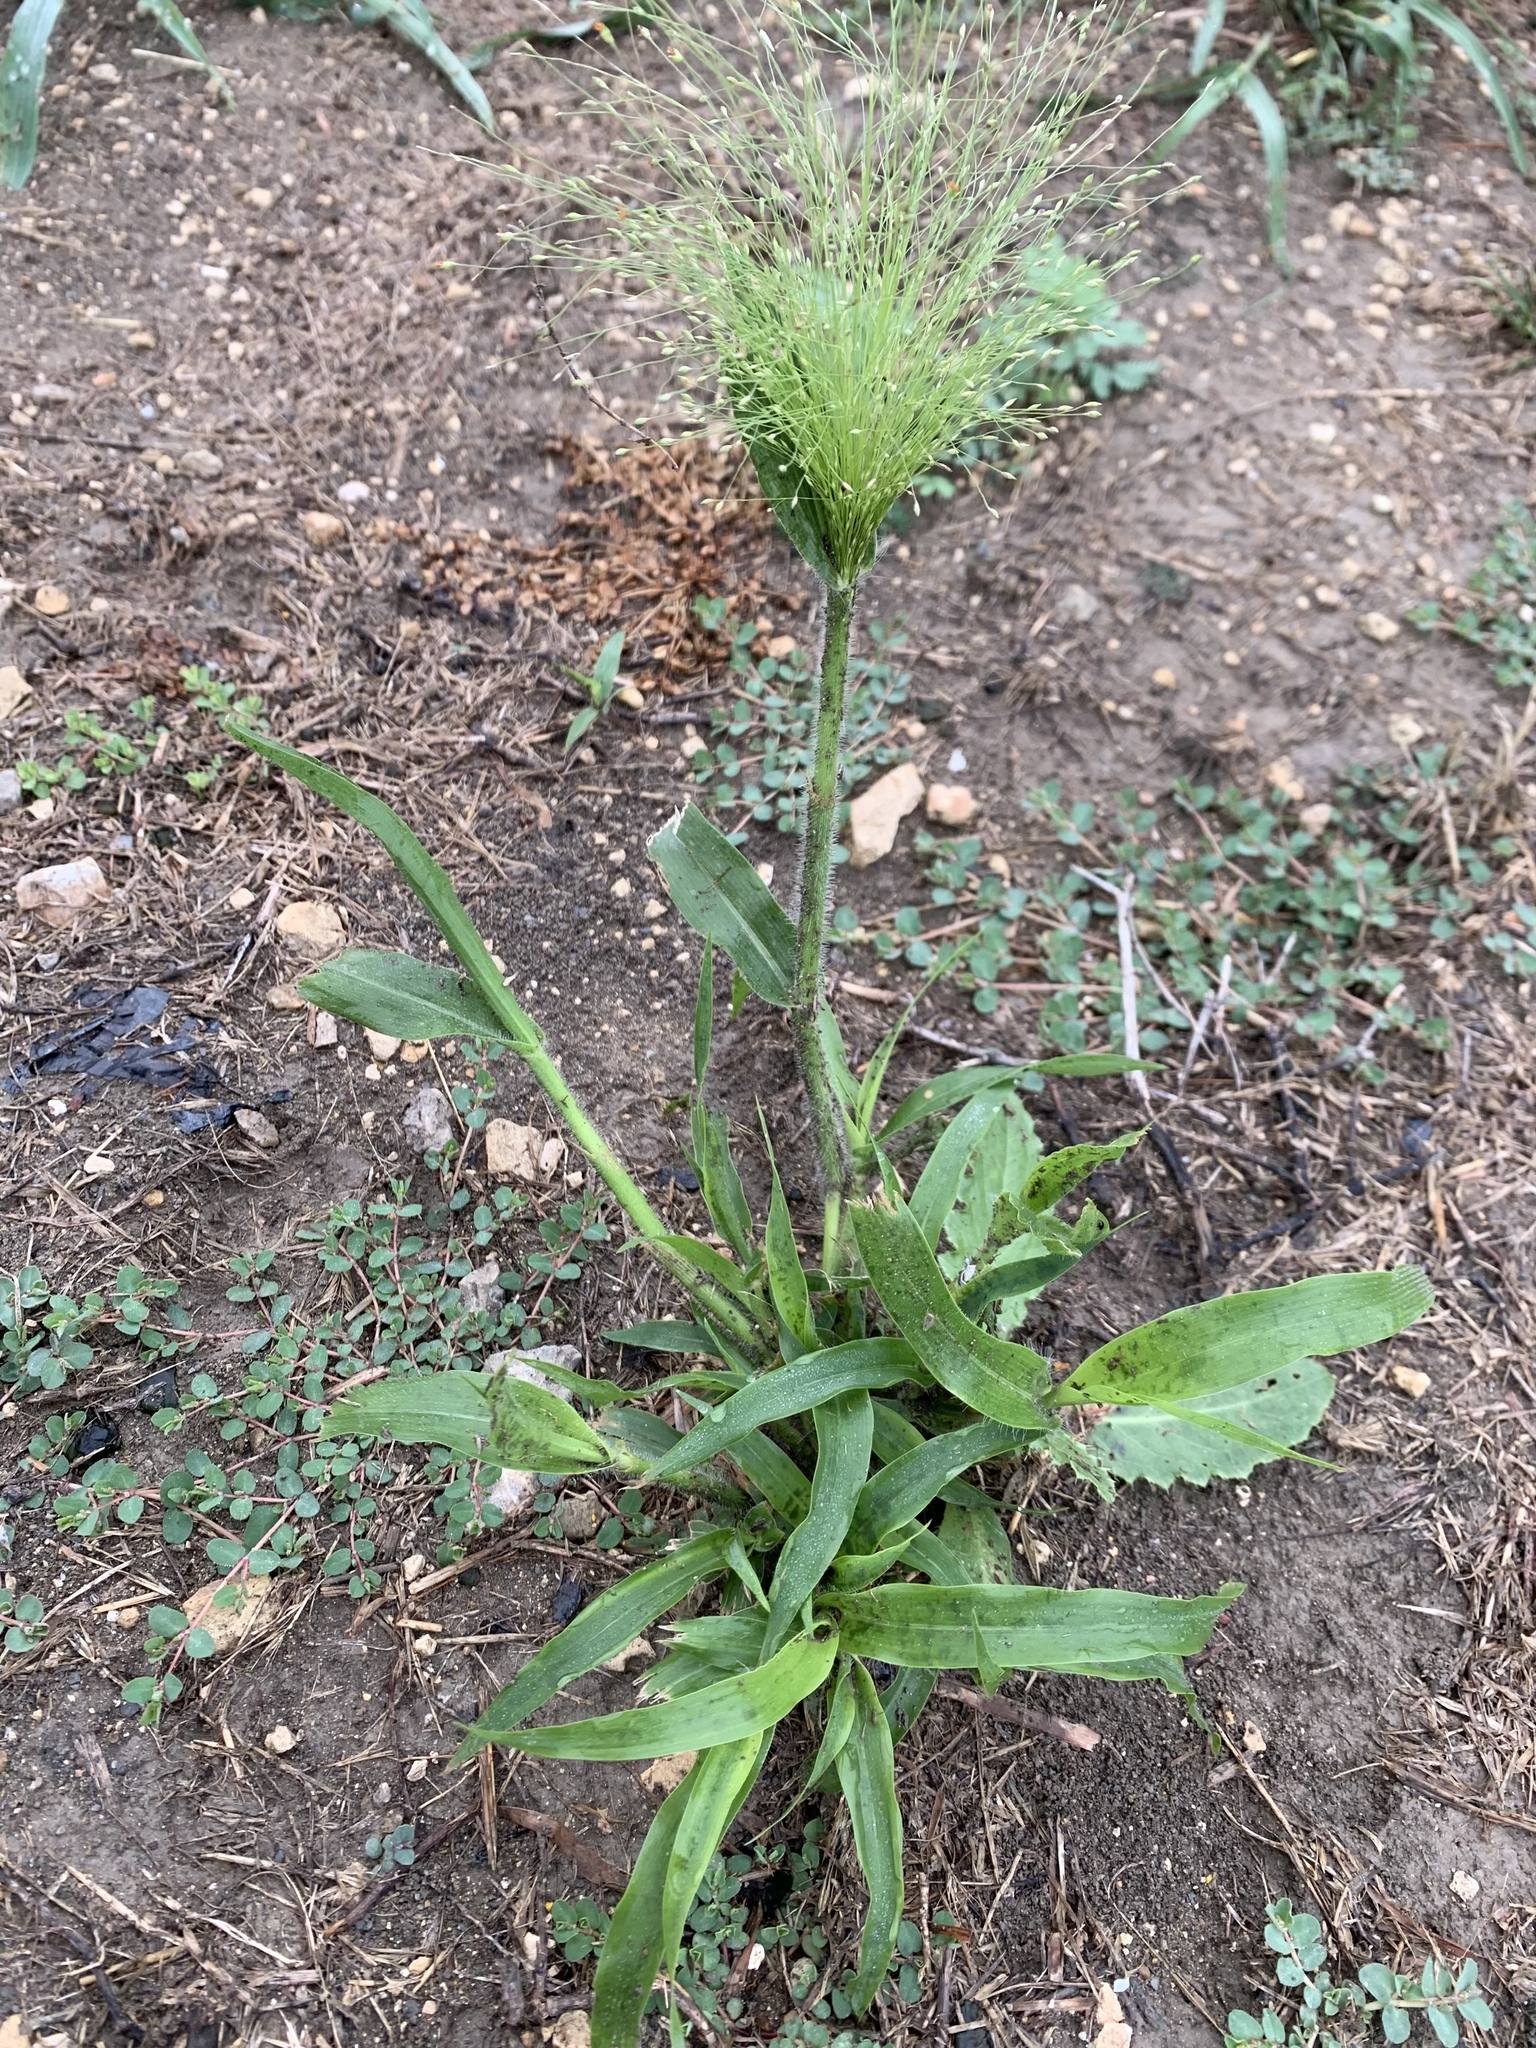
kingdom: Plantae
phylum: Tracheophyta
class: Liliopsida
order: Poales
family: Poaceae
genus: Panicum
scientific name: Panicum capillare
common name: Witch-grass
